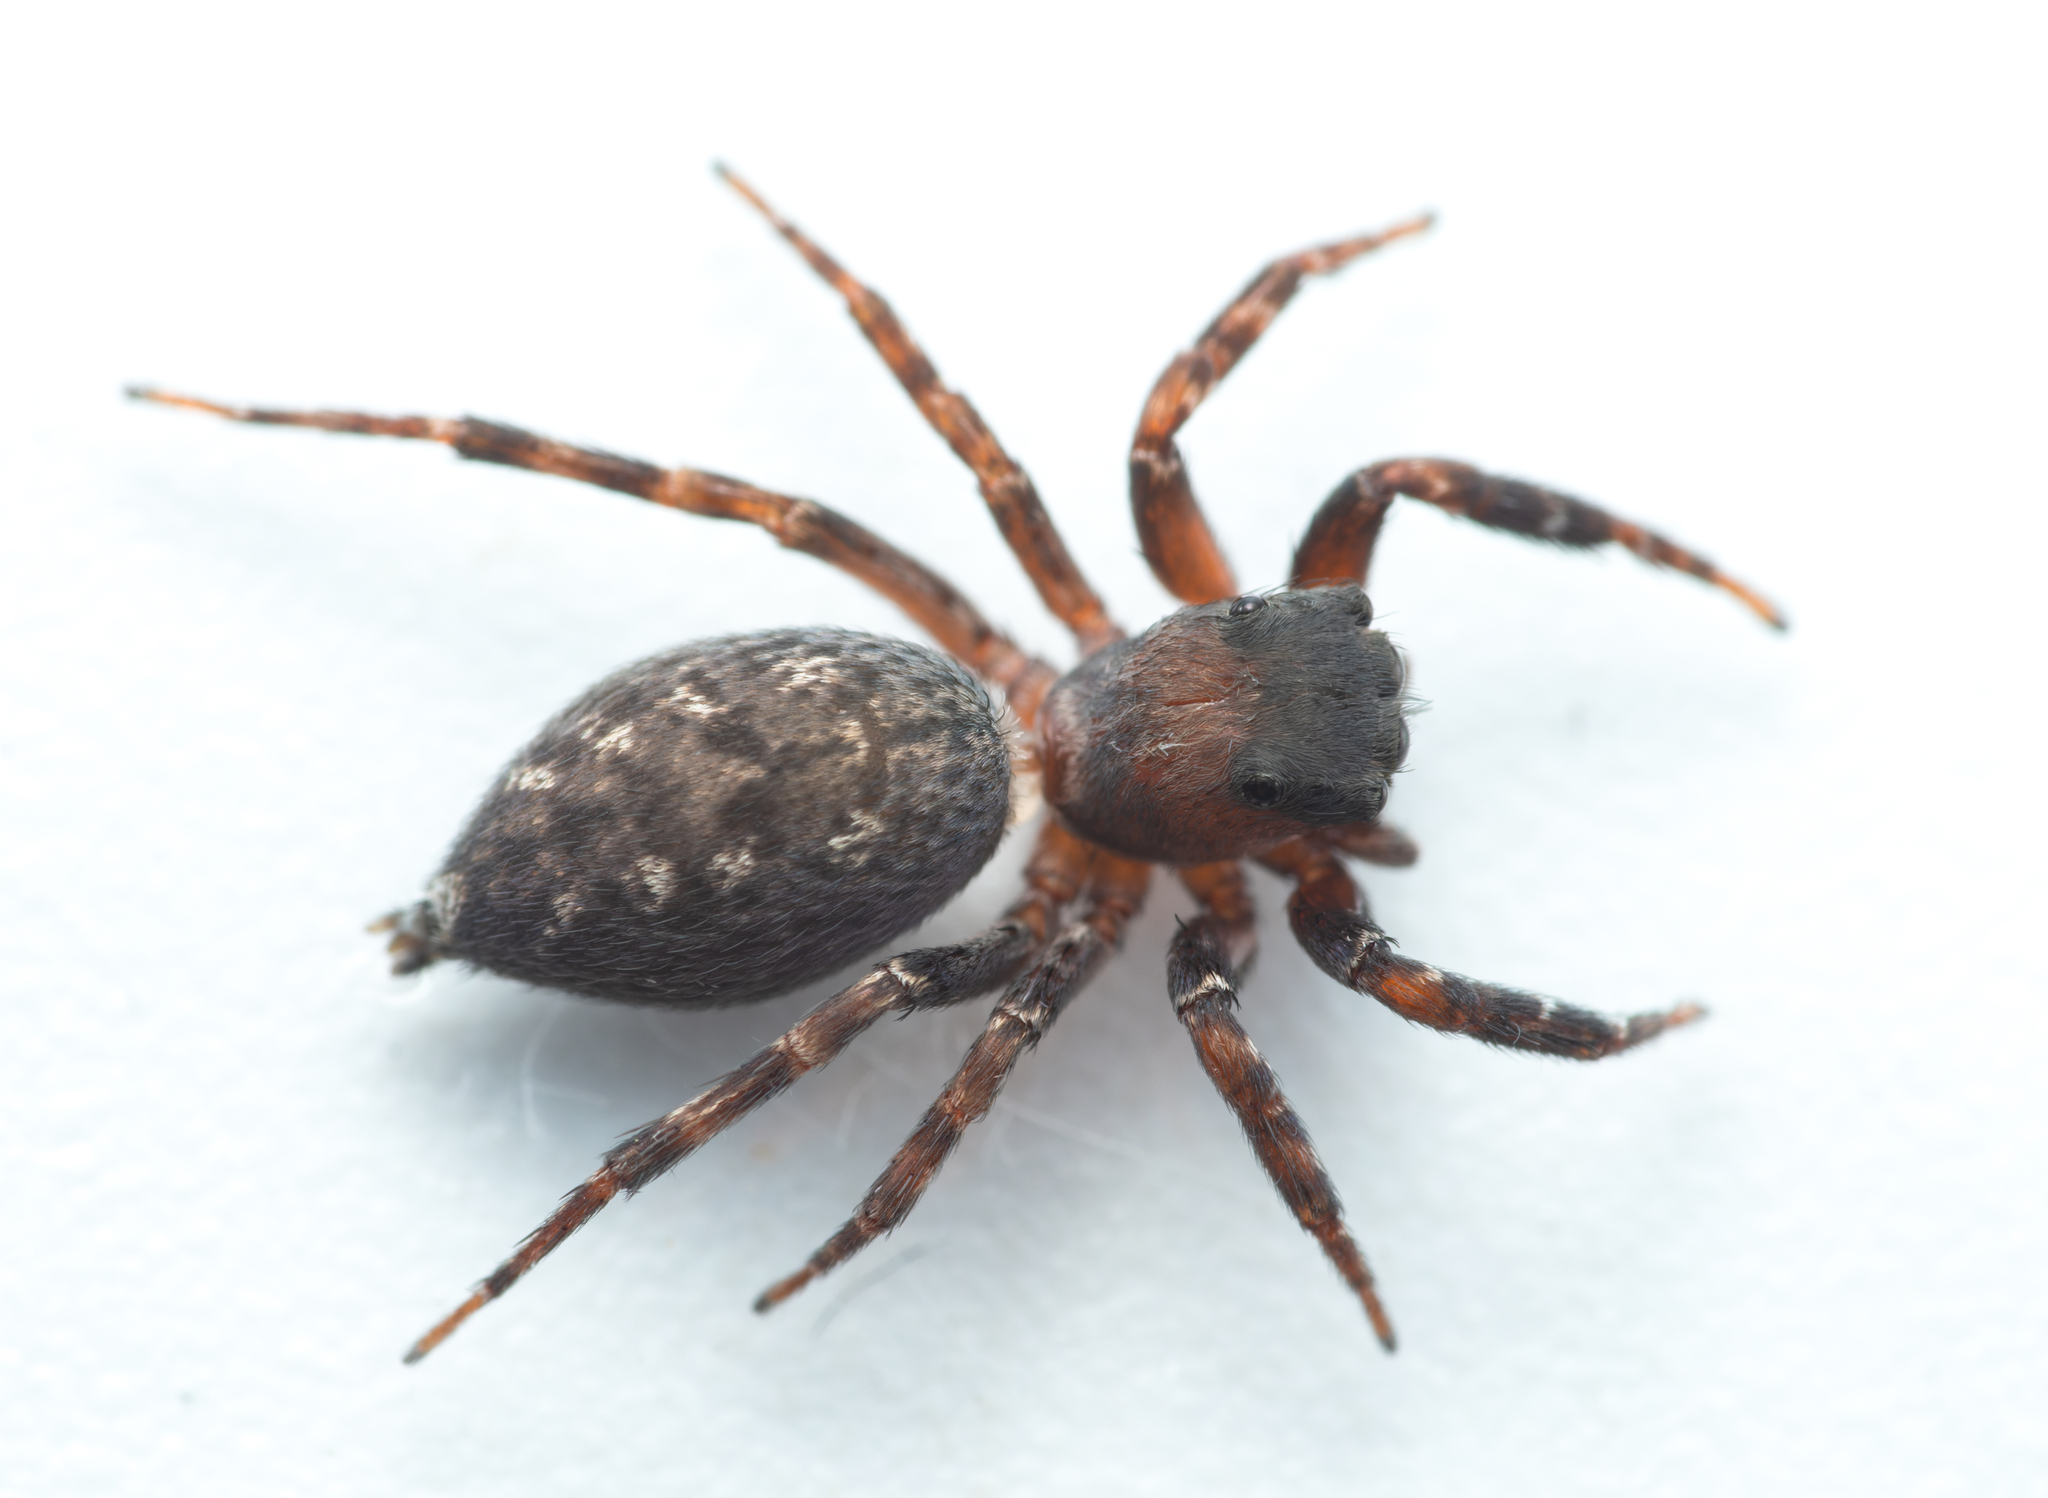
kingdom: Animalia
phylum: Arthropoda
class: Arachnida
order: Araneae
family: Salticidae
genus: Cyrba
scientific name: Cyrba algerina
